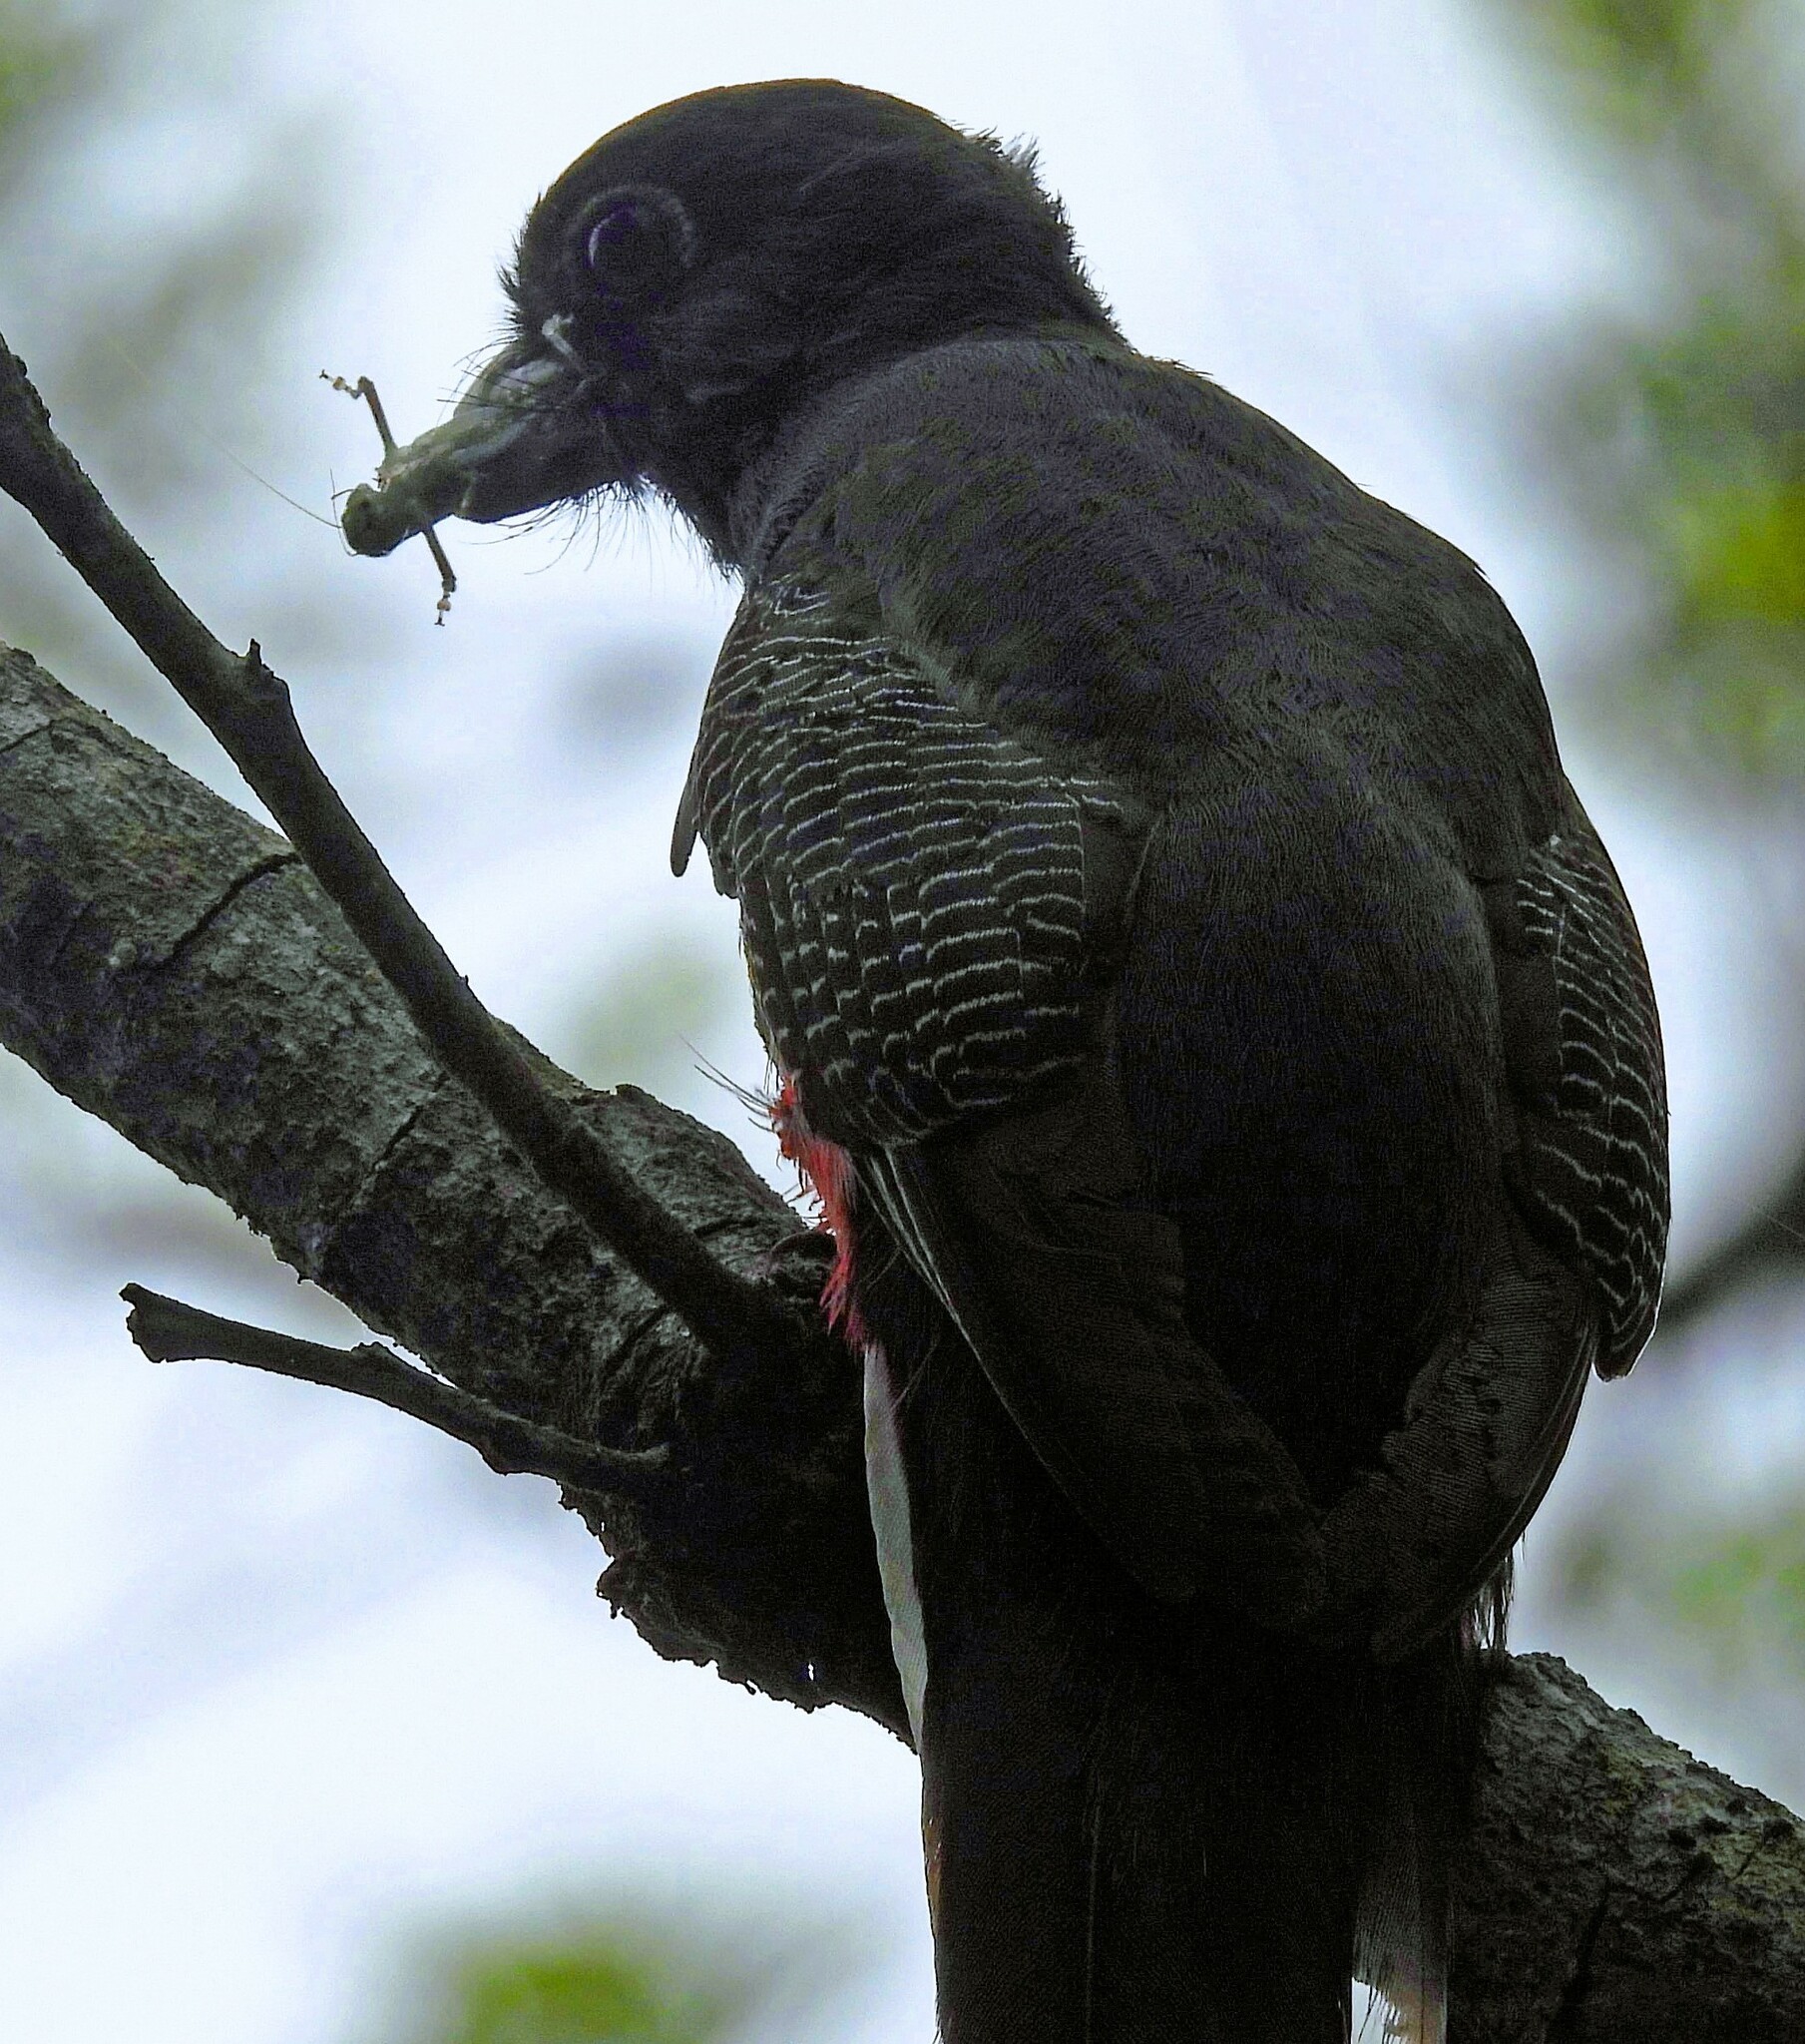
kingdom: Animalia
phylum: Chordata
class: Aves
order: Trogoniformes
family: Trogonidae
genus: Trogon
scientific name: Trogon surrucura
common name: Surucua trogon
